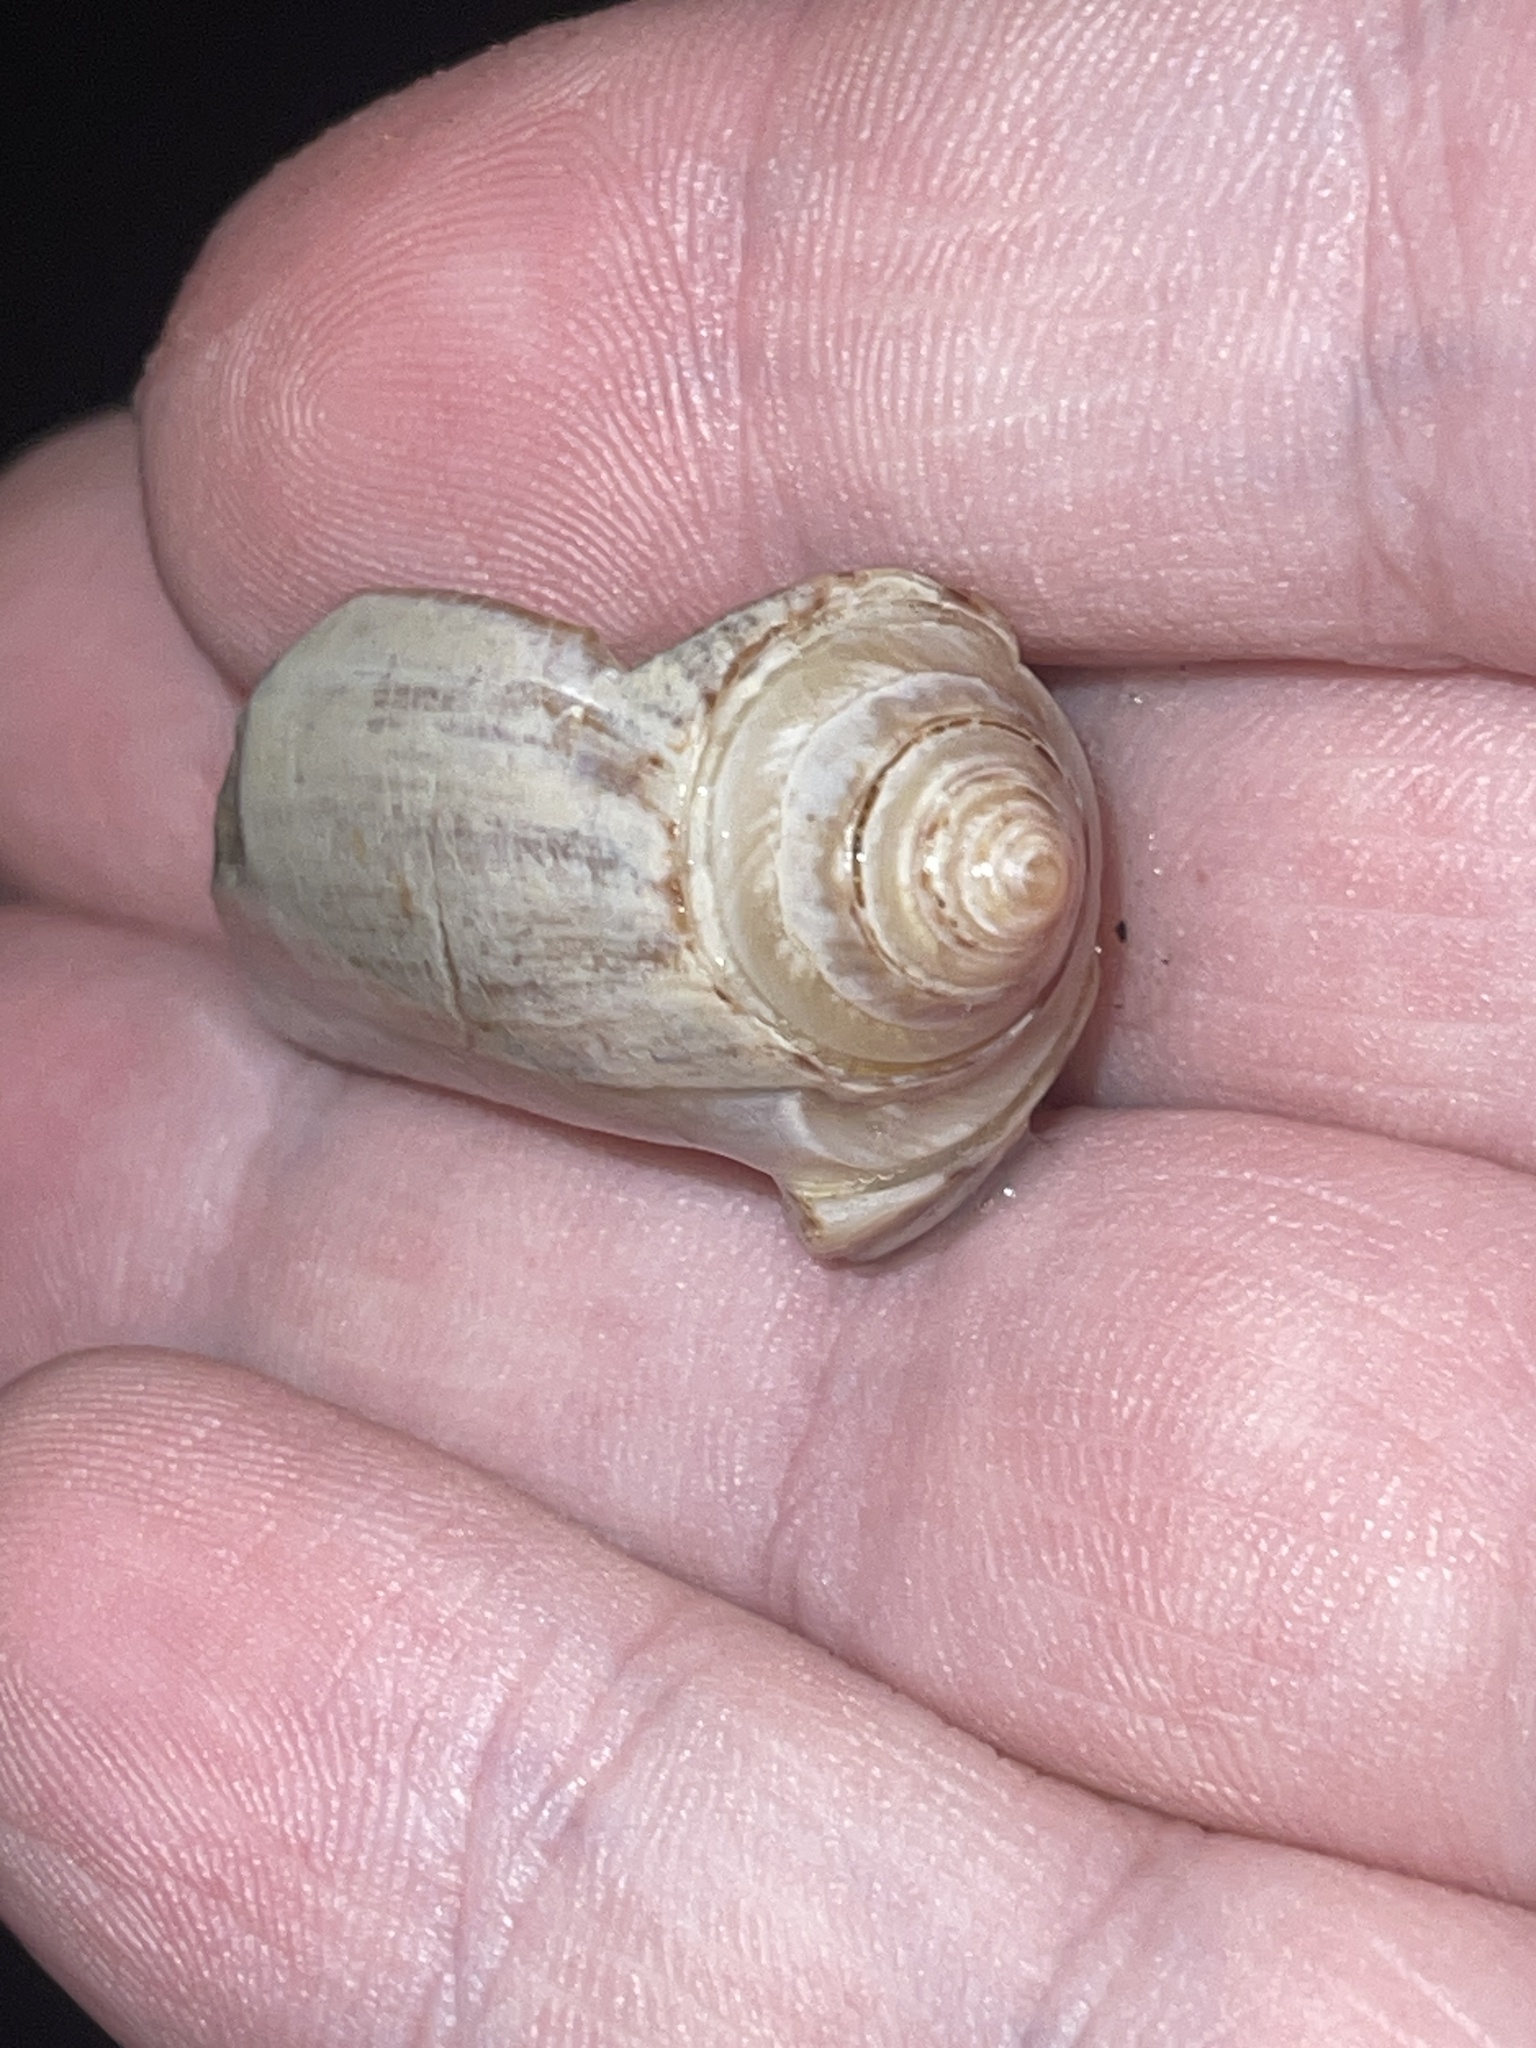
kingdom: Animalia
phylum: Mollusca
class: Gastropoda
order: Neogastropoda
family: Olividae
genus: Oliva
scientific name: Oliva sayana
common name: Lettered olive
